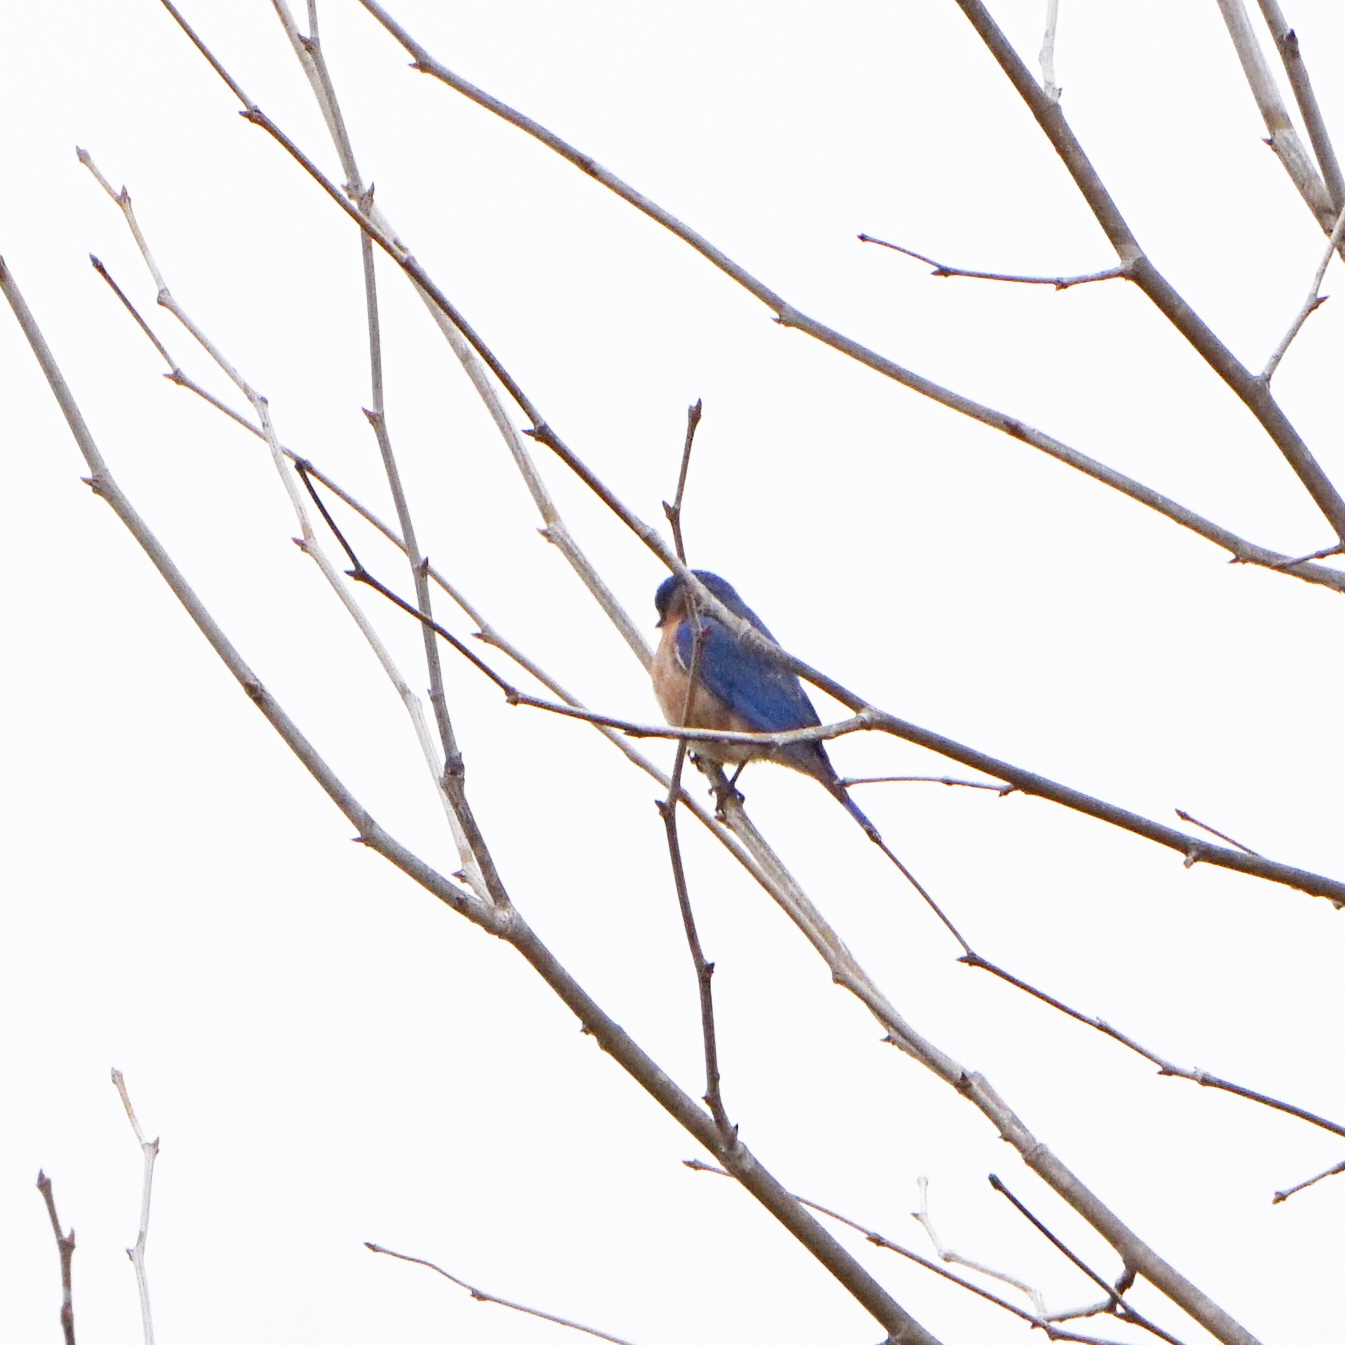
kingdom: Animalia
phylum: Chordata
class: Aves
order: Passeriformes
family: Turdidae
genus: Sialia
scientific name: Sialia sialis
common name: Eastern bluebird
